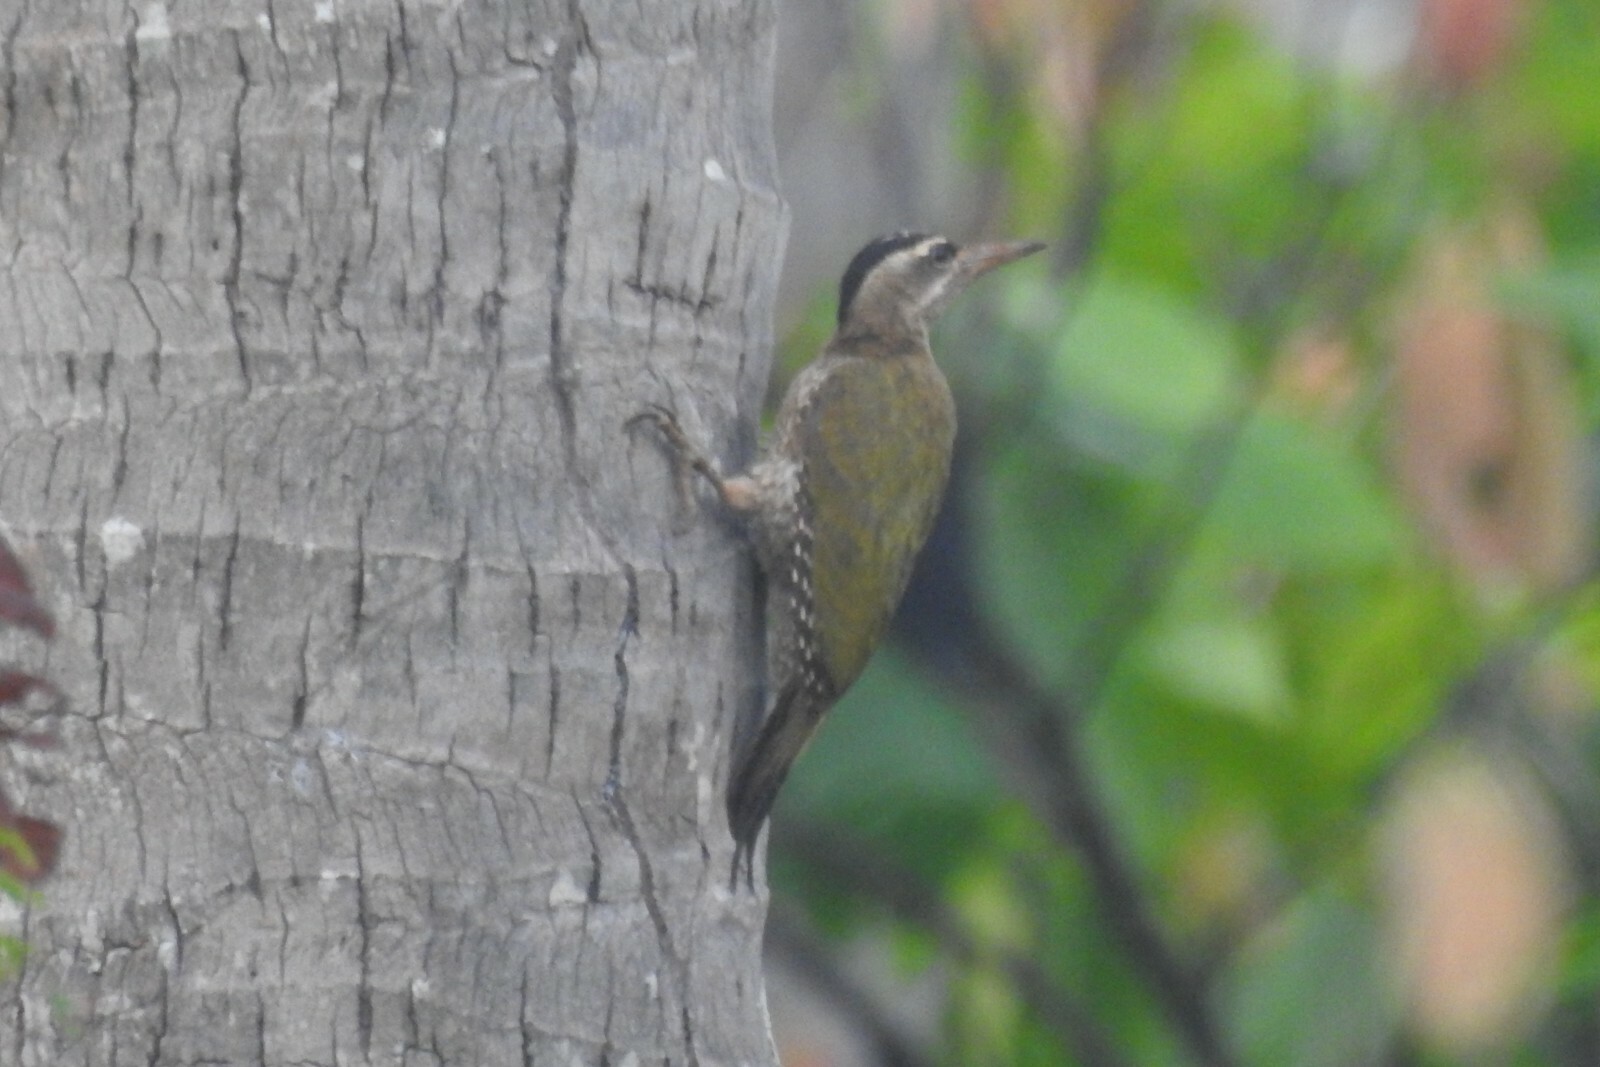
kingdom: Animalia
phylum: Chordata
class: Aves
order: Piciformes
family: Picidae
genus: Picus
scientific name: Picus xanthopygaeus
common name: Streak-throated woodpecker
